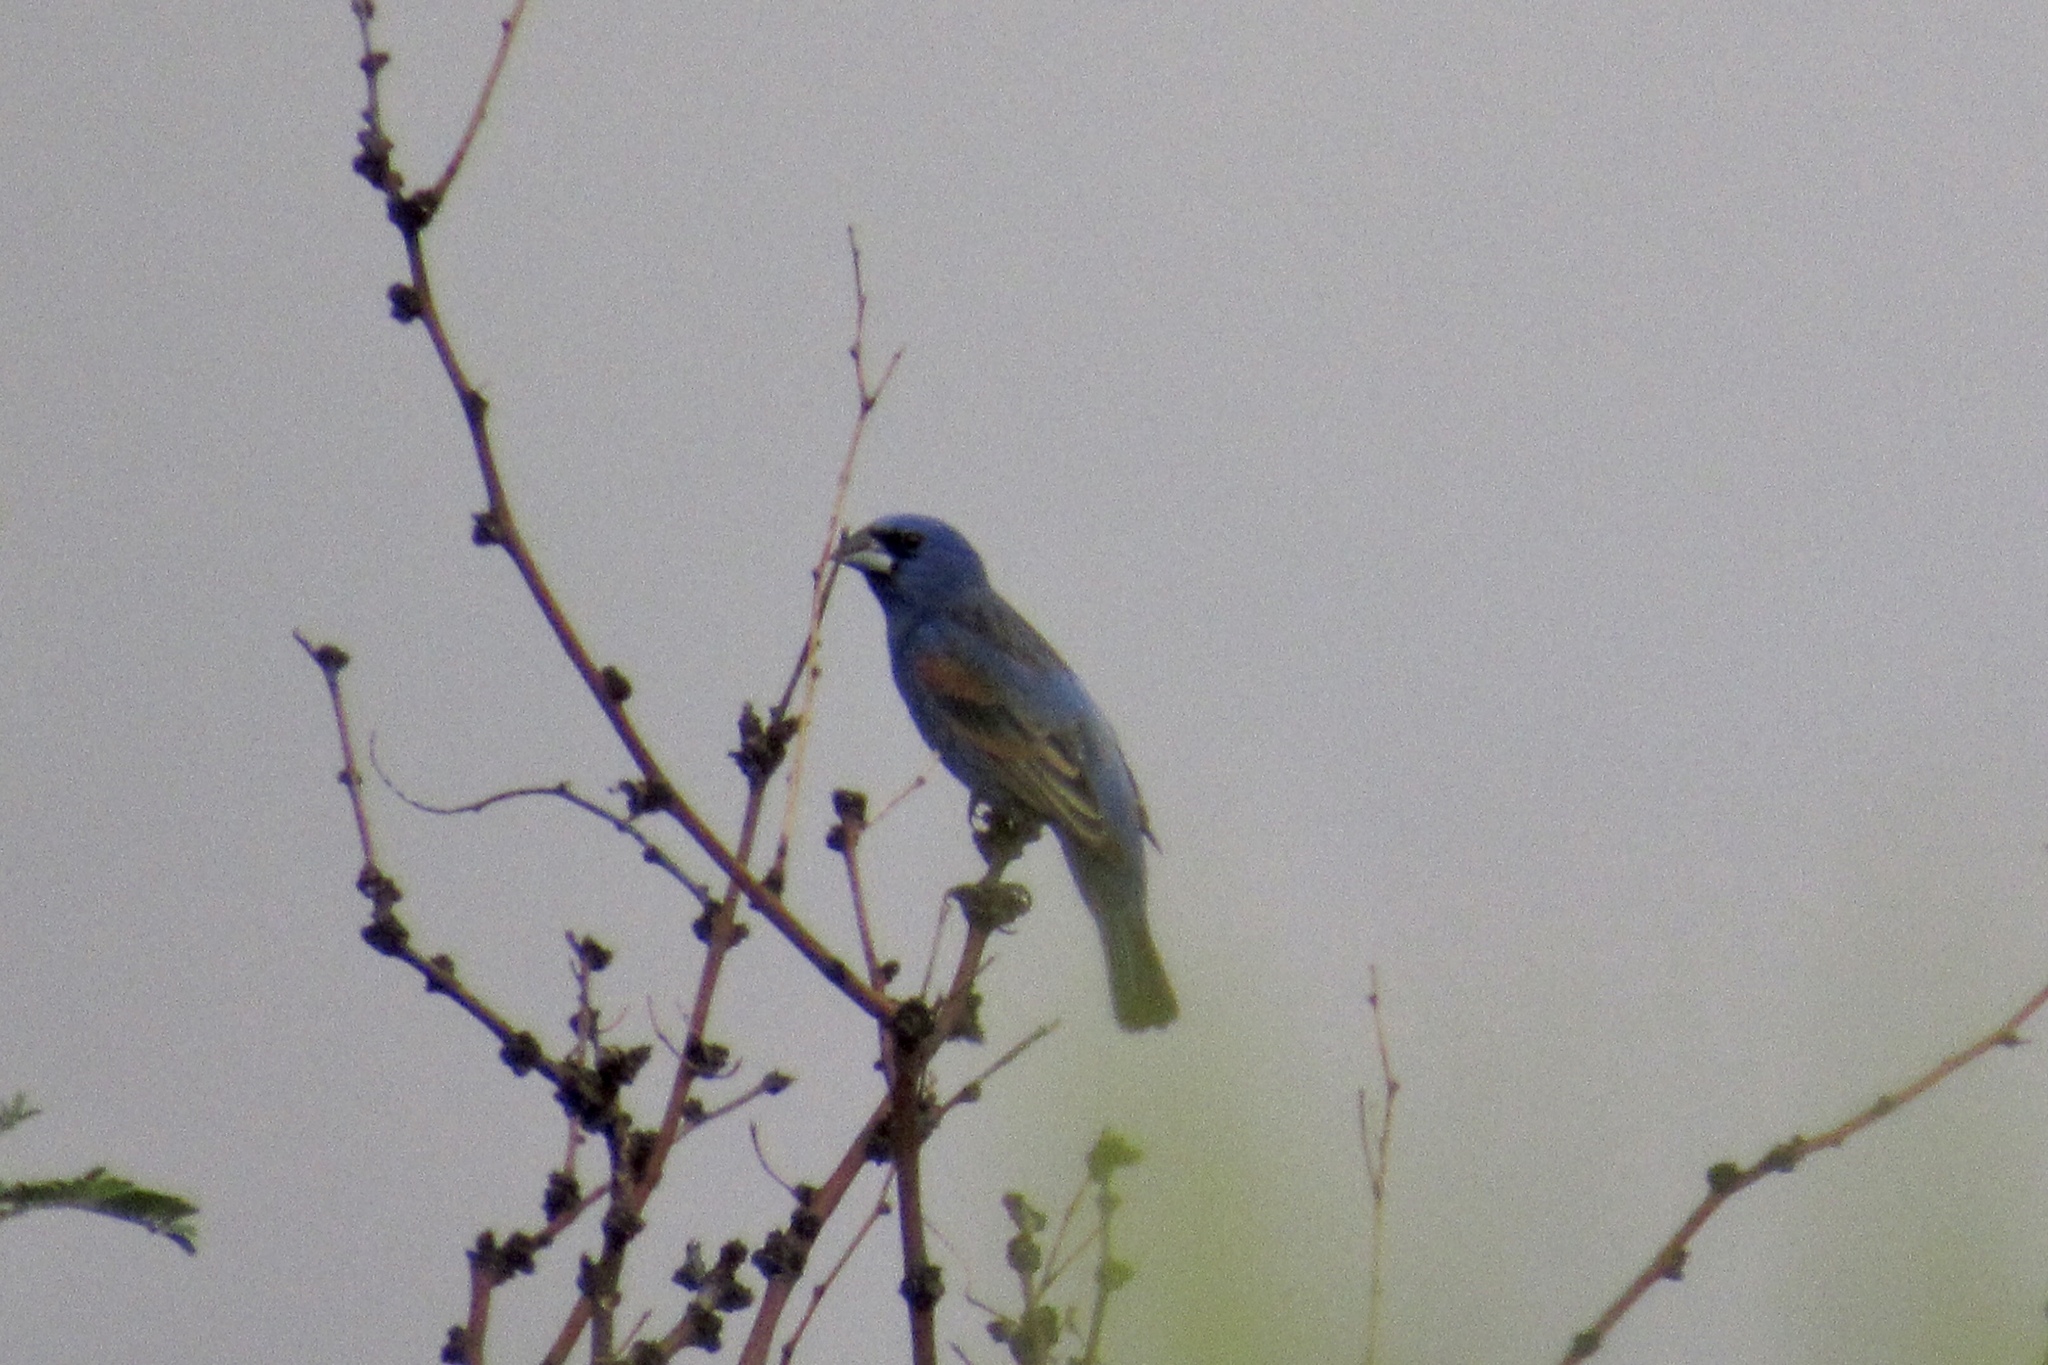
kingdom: Animalia
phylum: Chordata
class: Aves
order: Passeriformes
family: Cardinalidae
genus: Passerina
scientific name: Passerina caerulea
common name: Blue grosbeak
